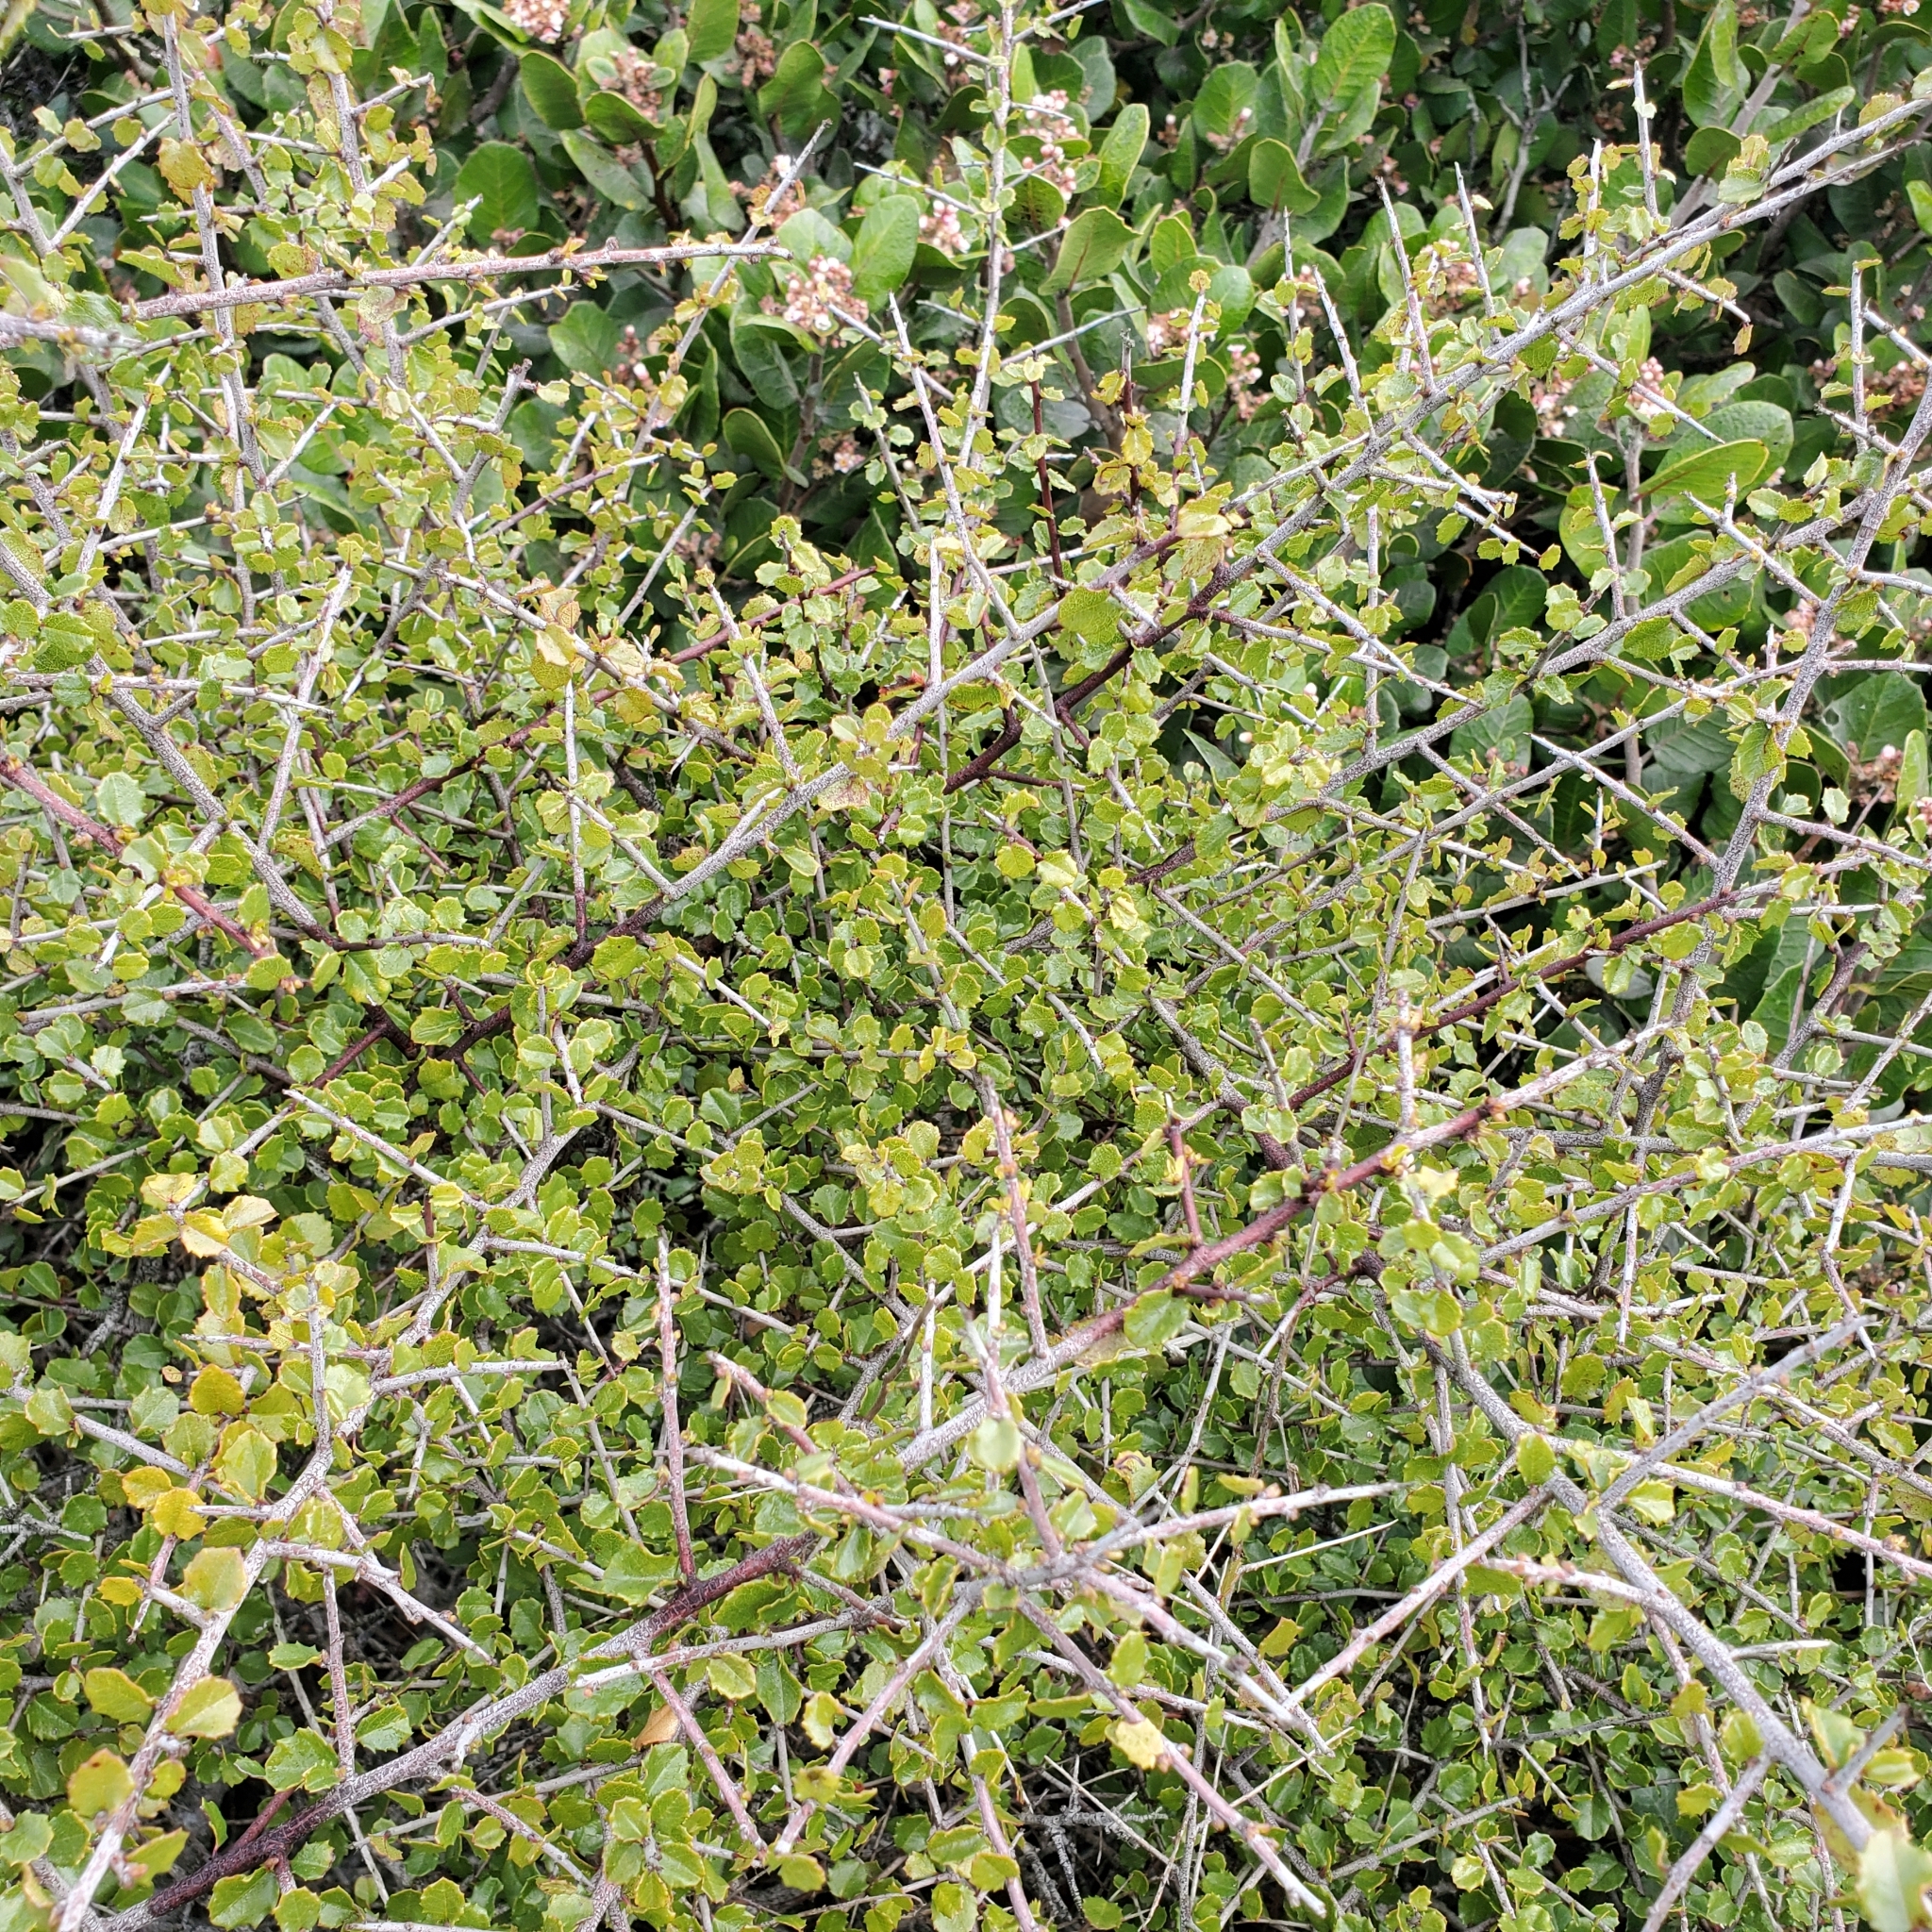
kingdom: Plantae
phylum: Tracheophyta
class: Magnoliopsida
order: Rosales
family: Rhamnaceae
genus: Endotropis
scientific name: Endotropis crocea
